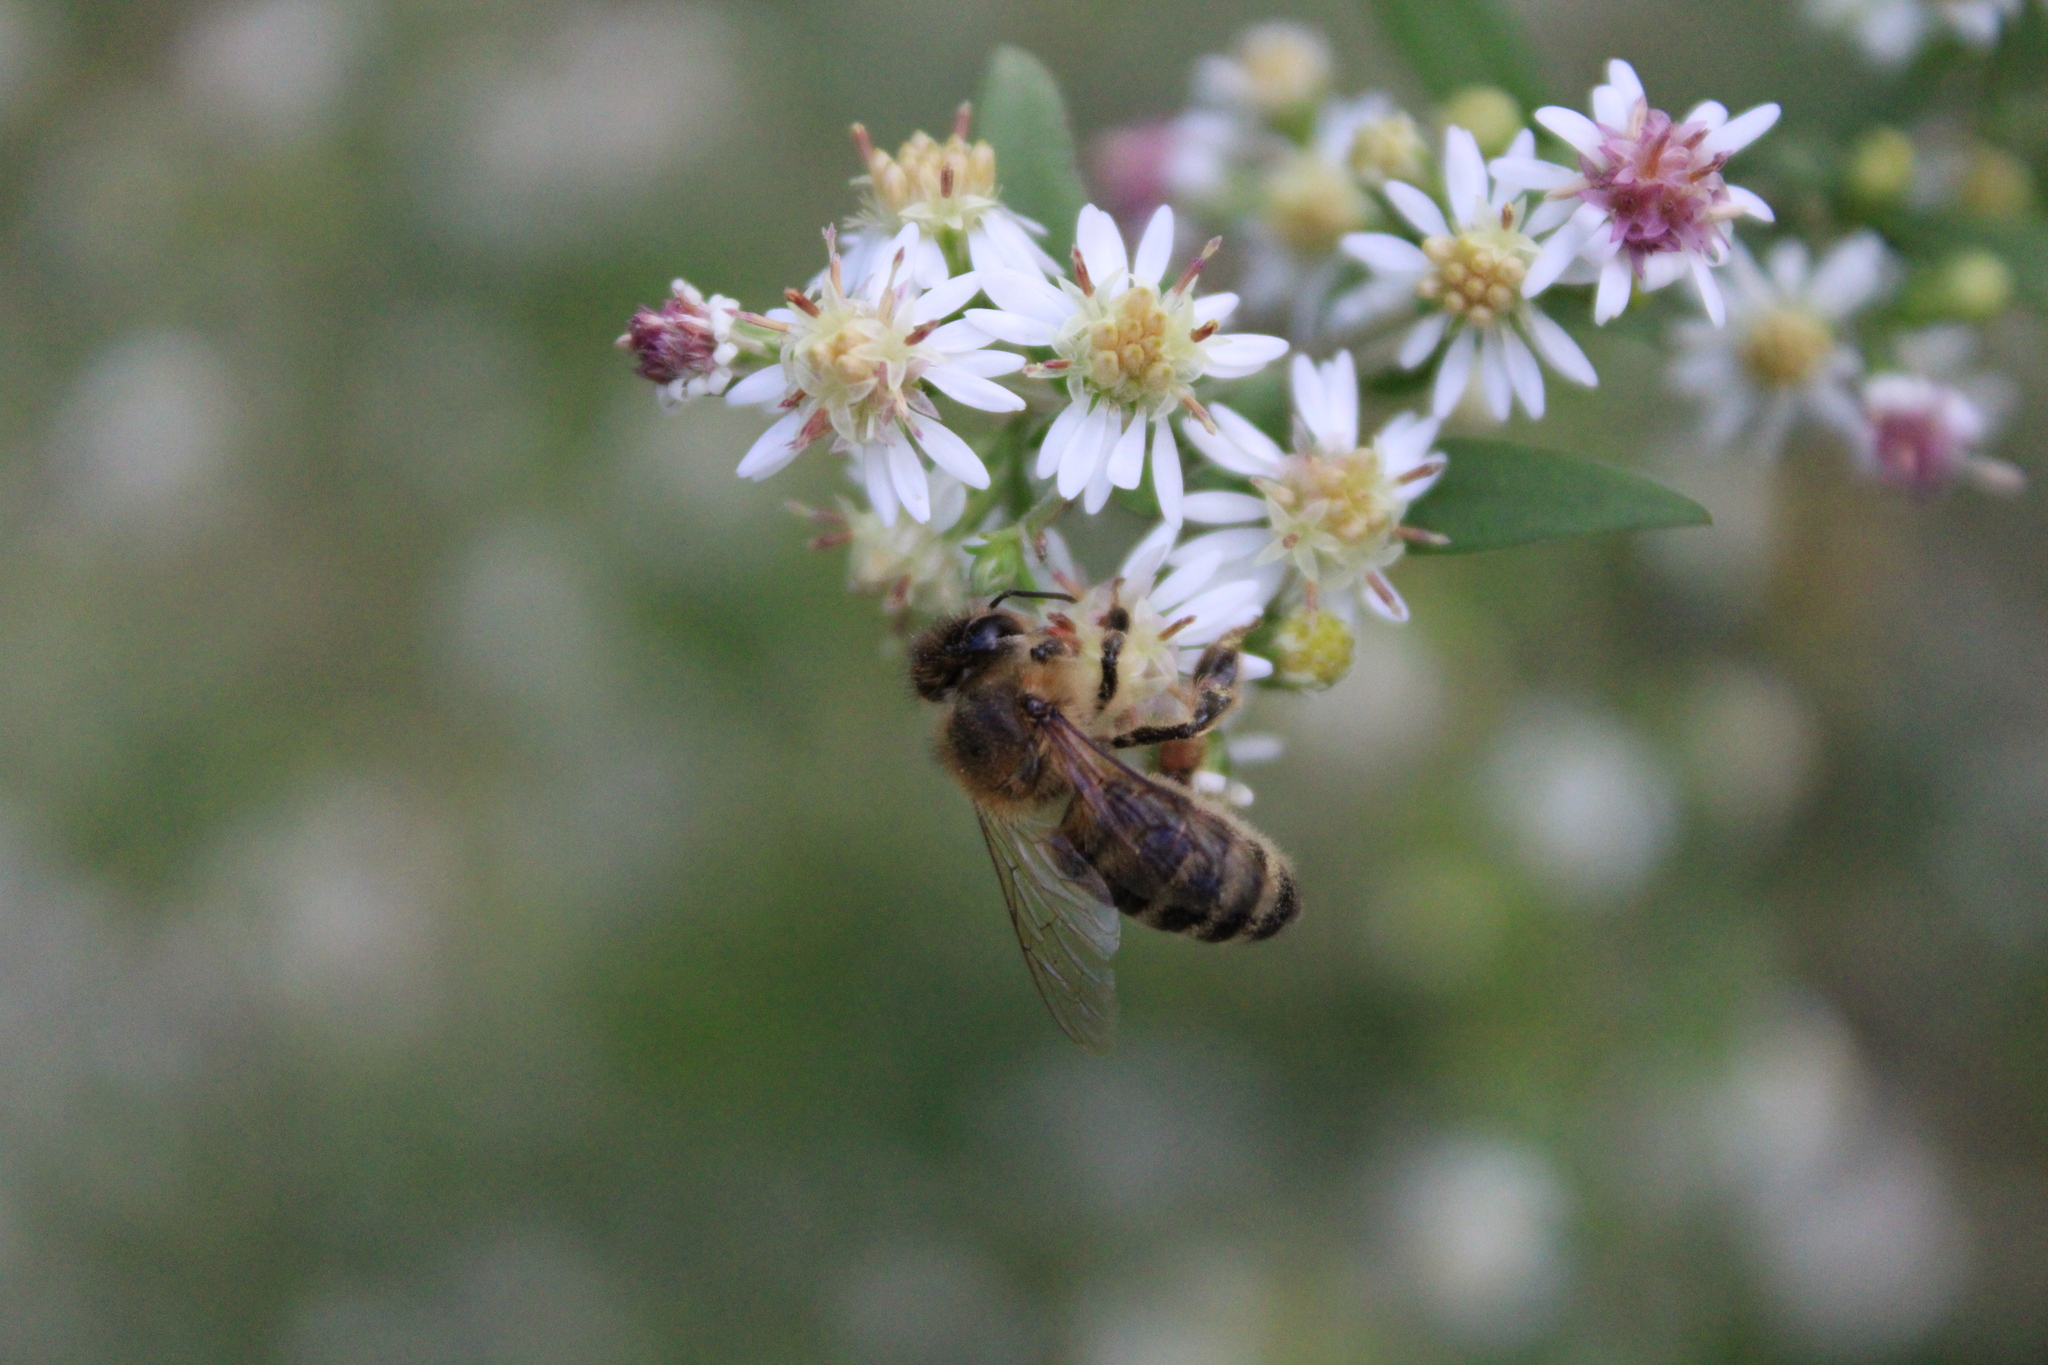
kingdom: Animalia
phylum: Arthropoda
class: Insecta
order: Hymenoptera
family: Apidae
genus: Apis
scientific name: Apis mellifera
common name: Honey bee
